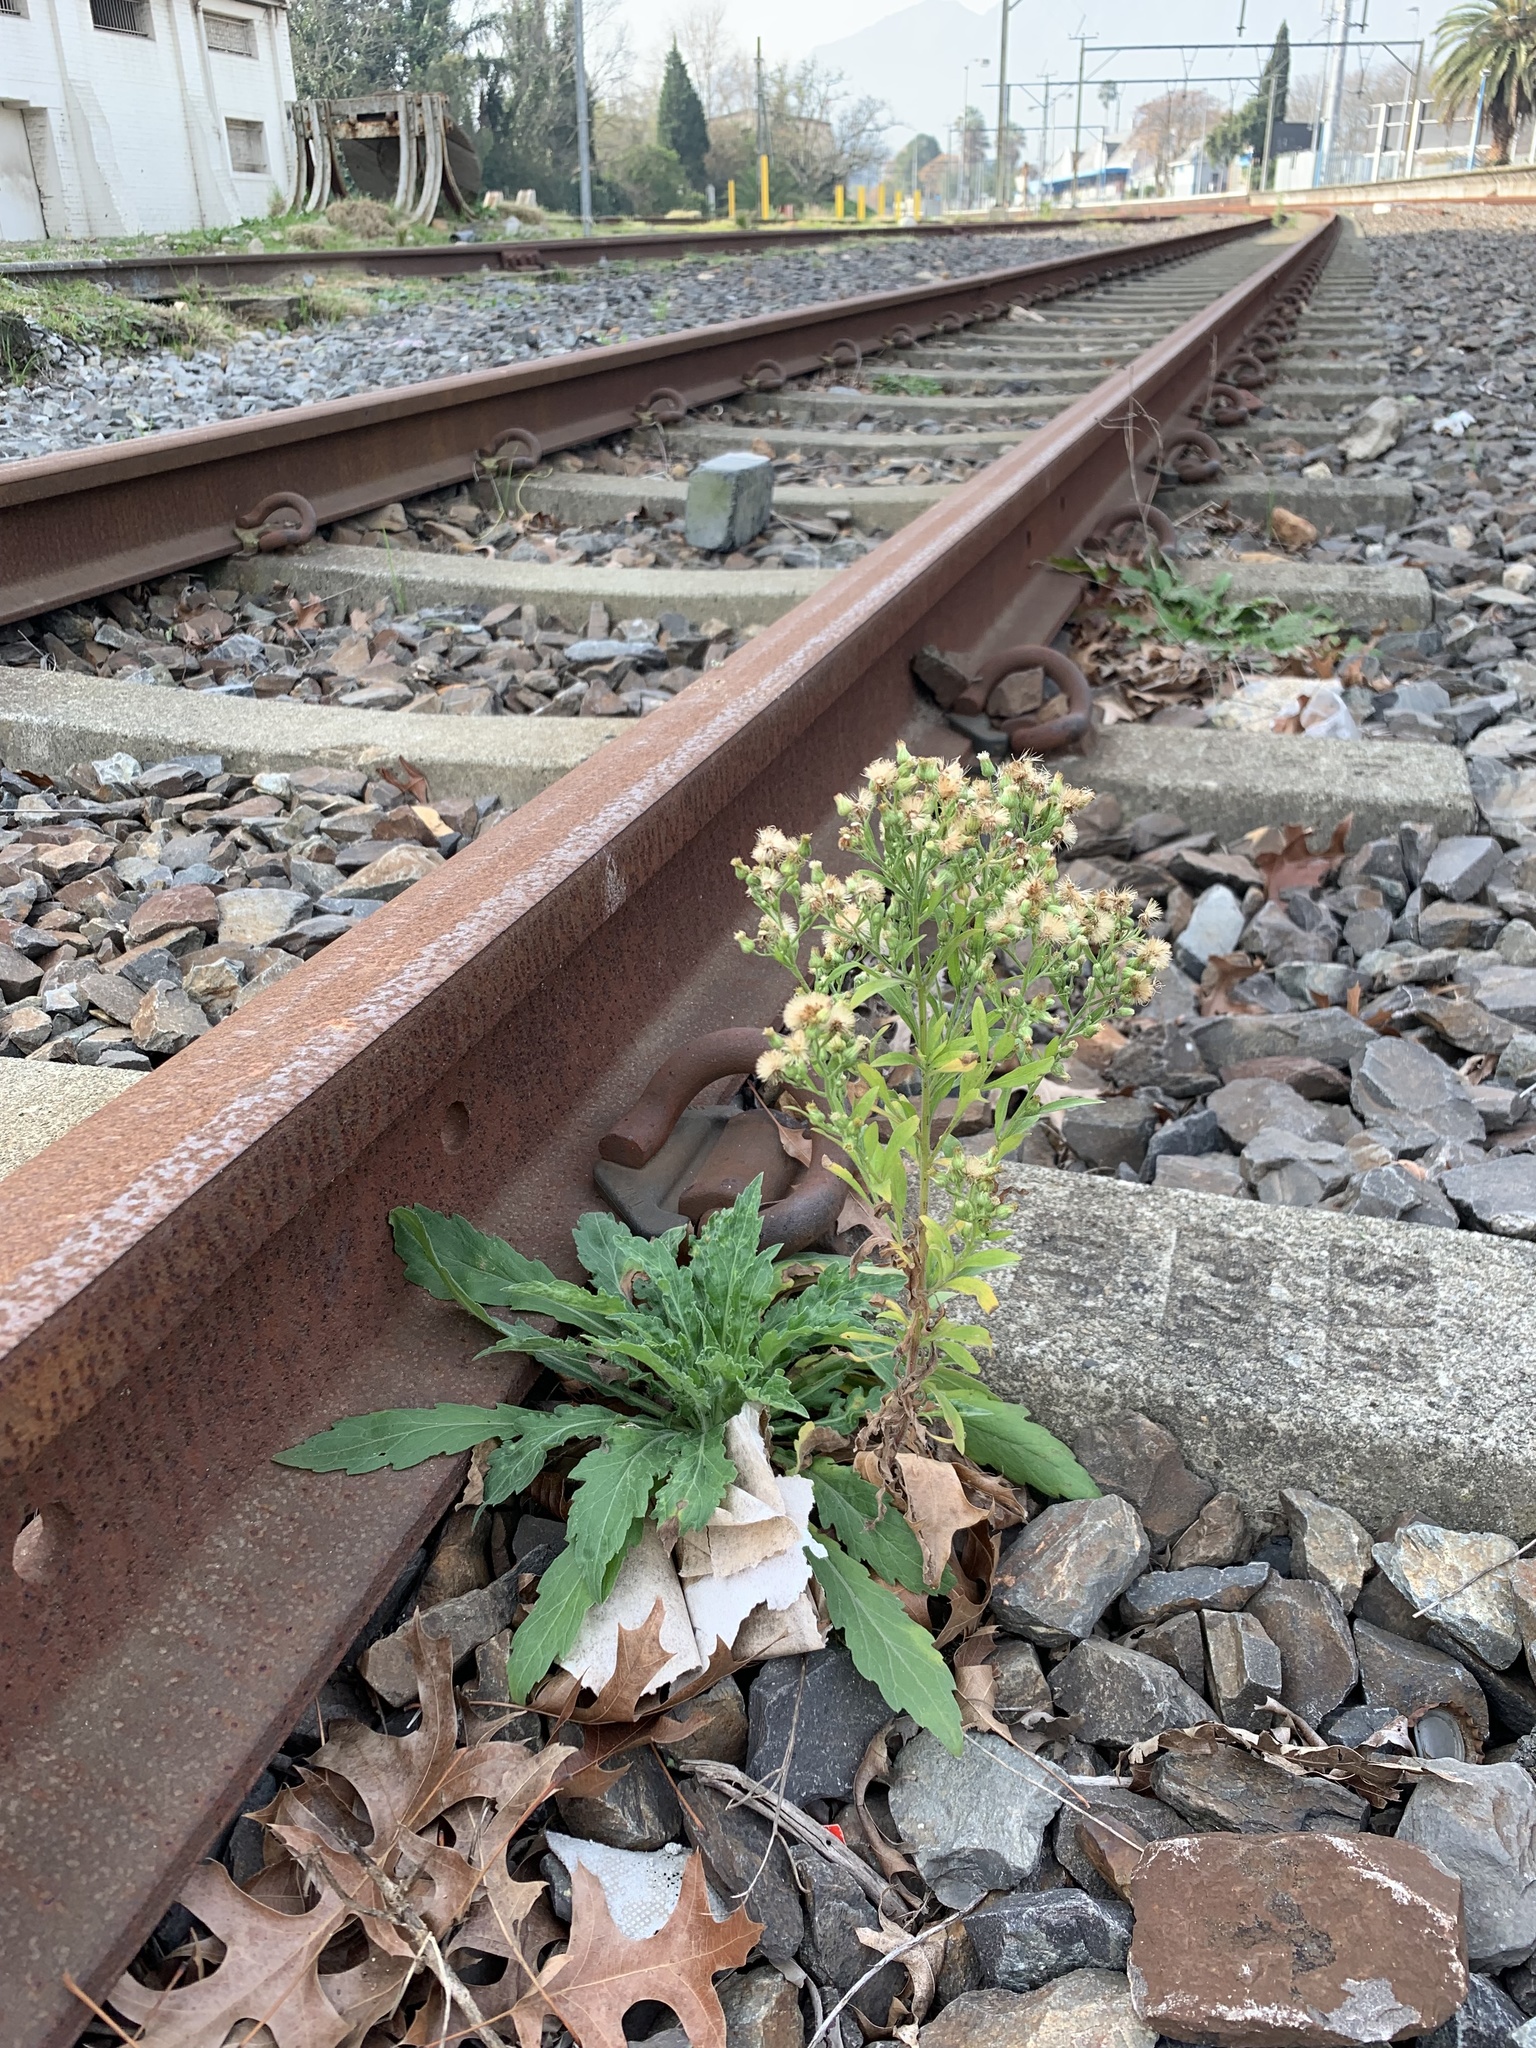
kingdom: Plantae
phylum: Tracheophyta
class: Magnoliopsida
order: Asterales
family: Asteraceae
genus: Erigeron
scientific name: Erigeron sumatrensis
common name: Daisy
